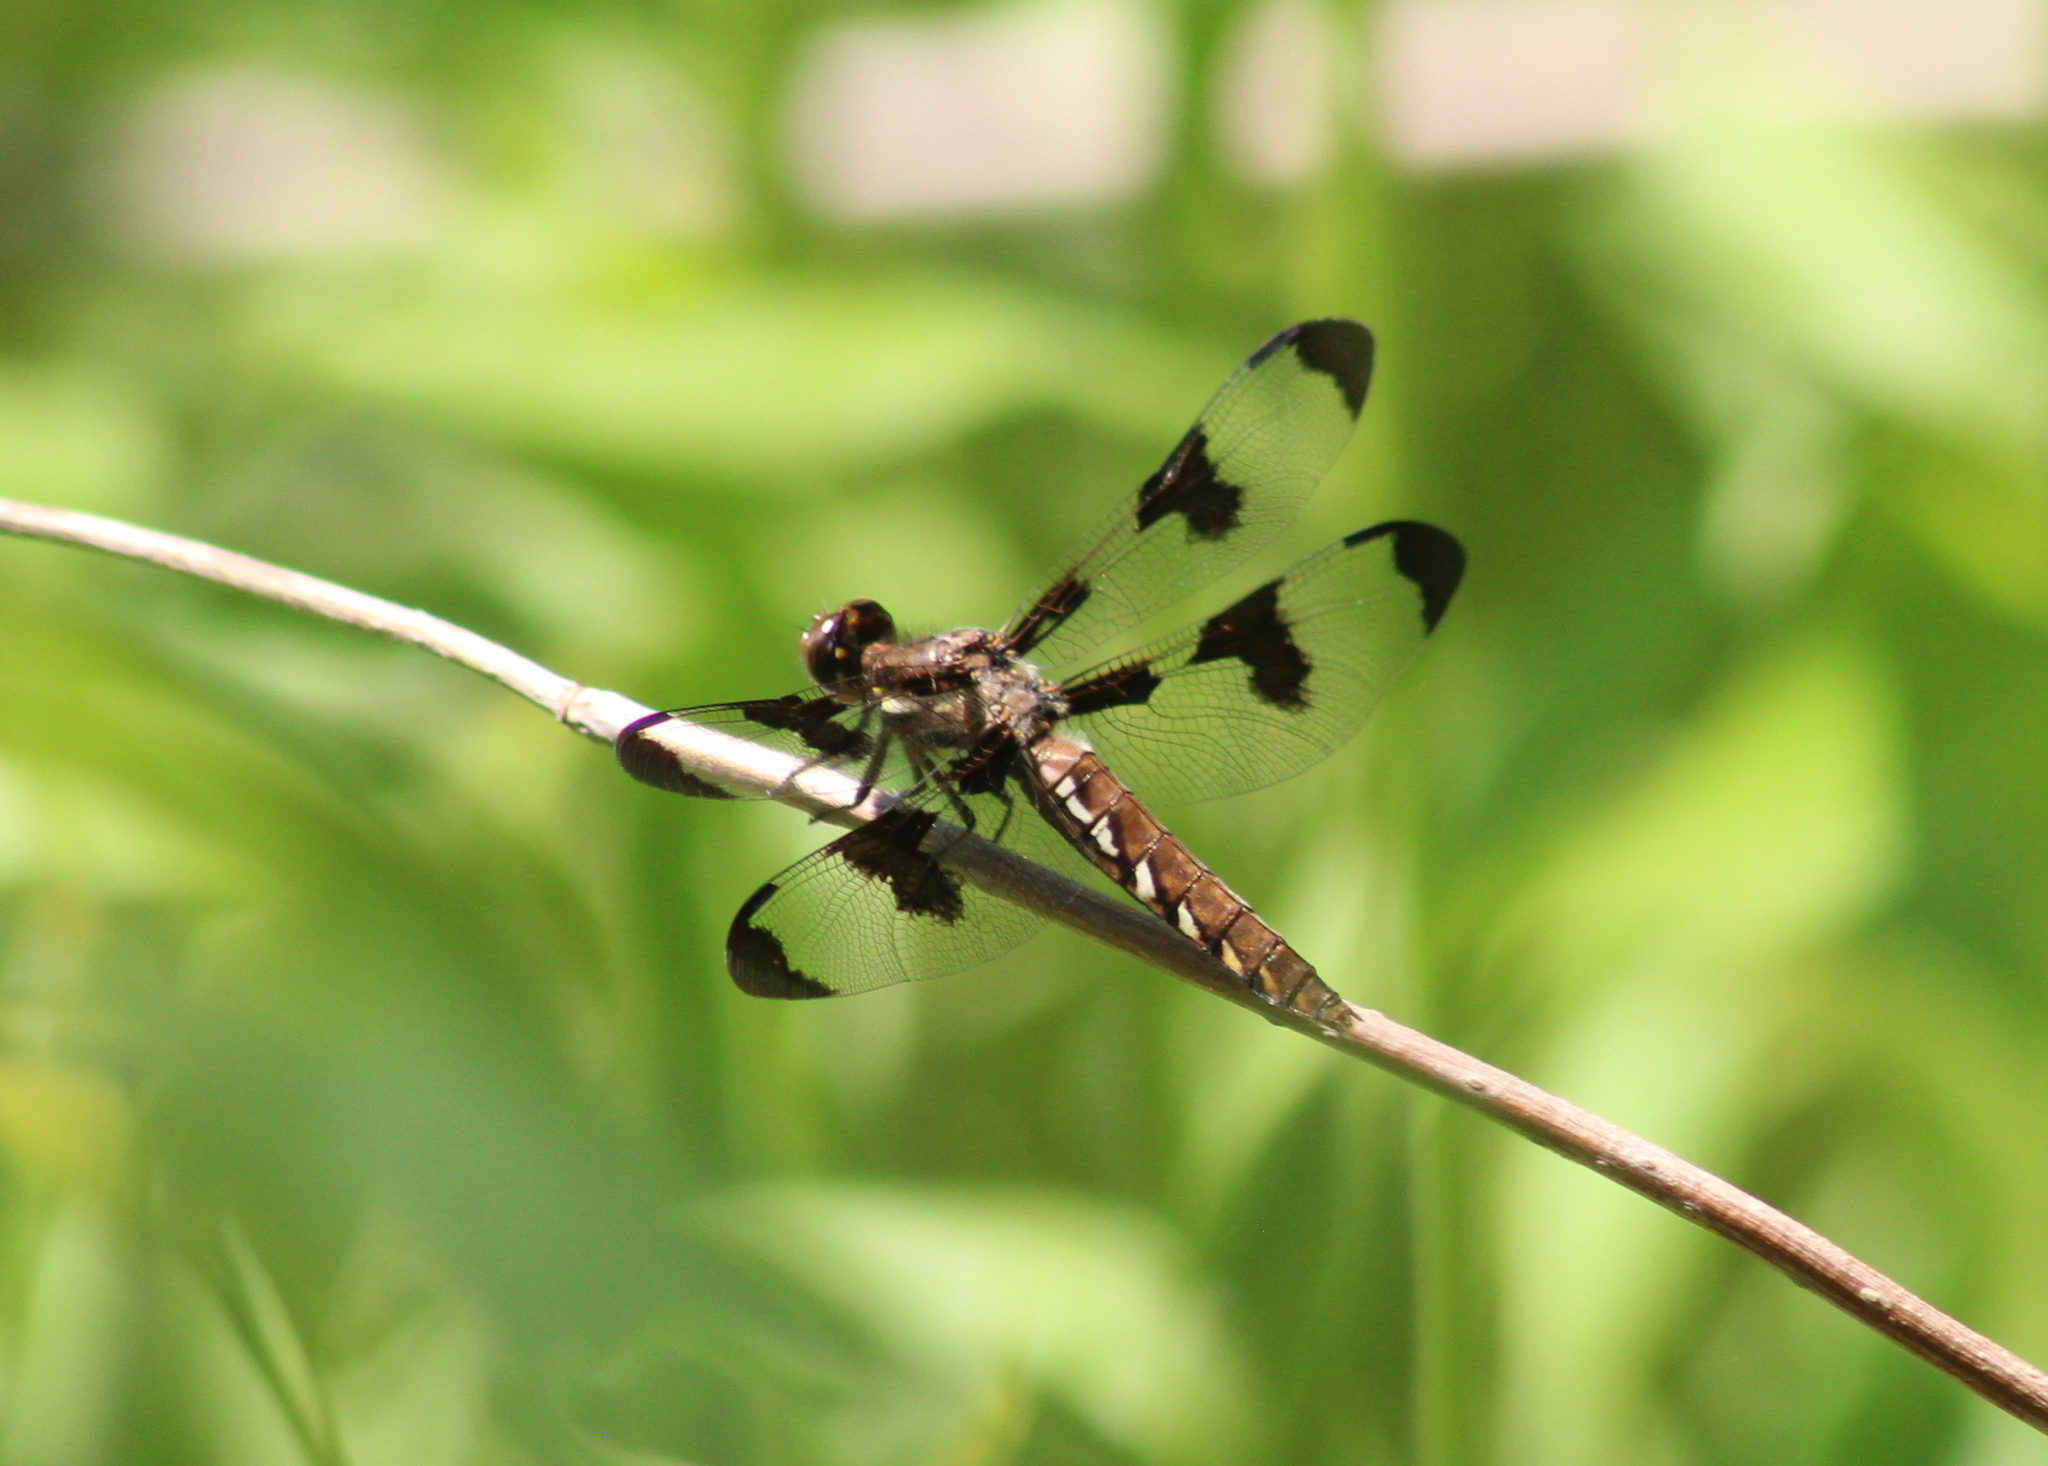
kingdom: Animalia
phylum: Arthropoda
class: Insecta
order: Odonata
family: Libellulidae
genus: Plathemis
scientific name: Plathemis lydia
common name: Common whitetail
